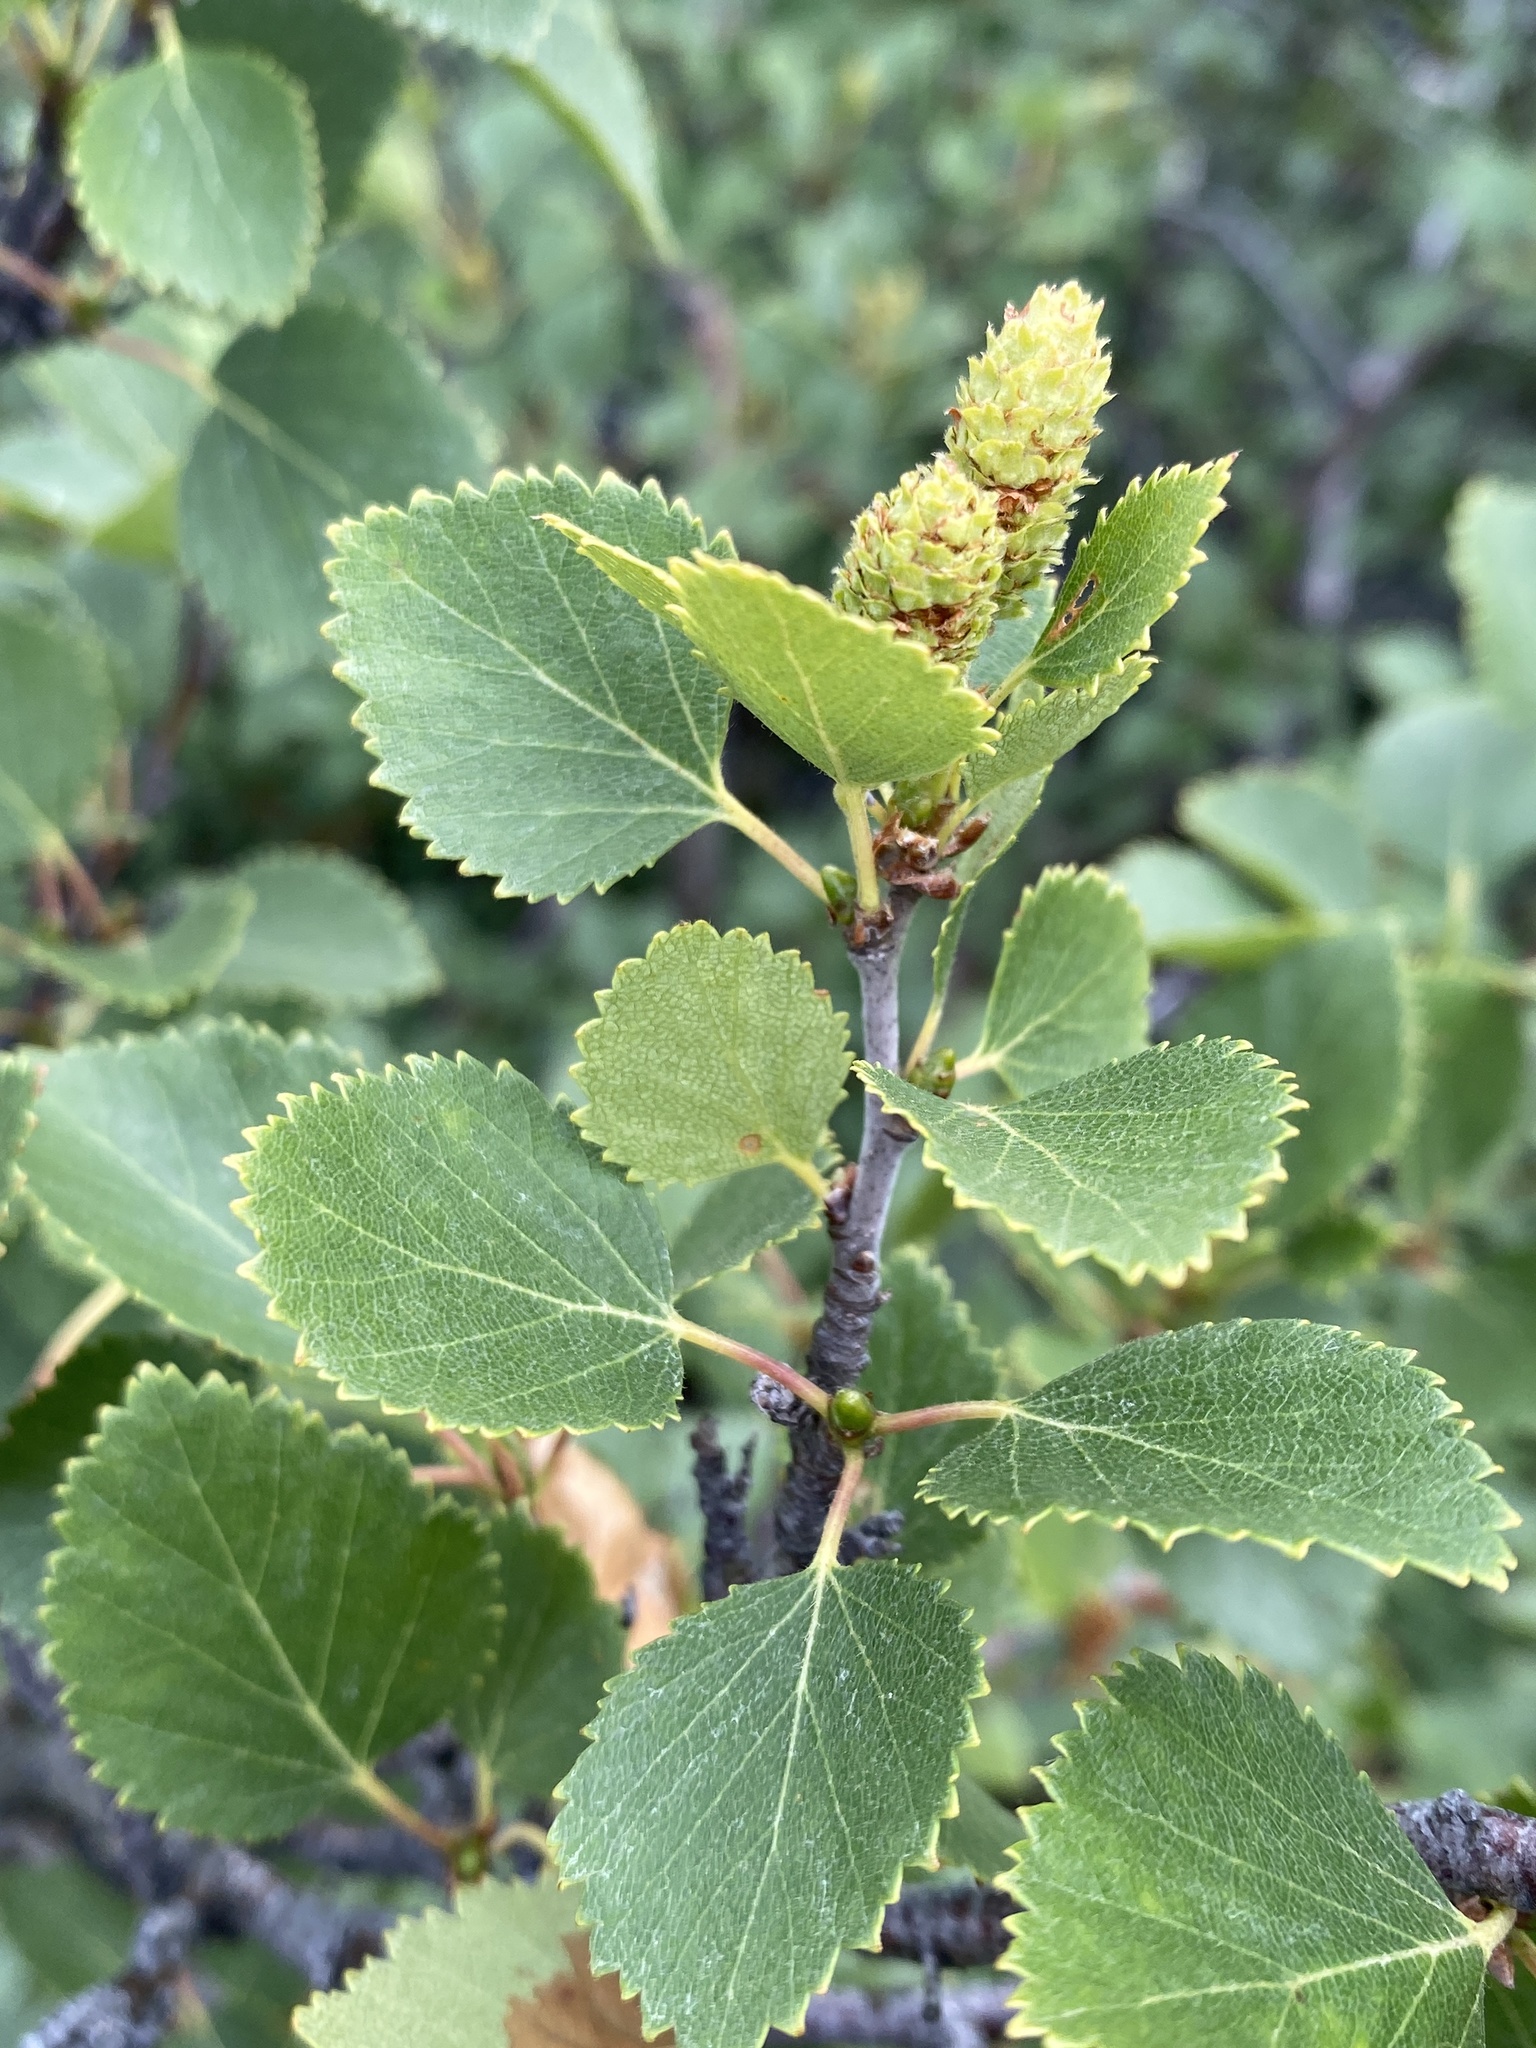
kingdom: Plantae
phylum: Tracheophyta
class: Magnoliopsida
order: Fagales
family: Betulaceae
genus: Betula
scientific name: Betula pubescens
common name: Downy birch
